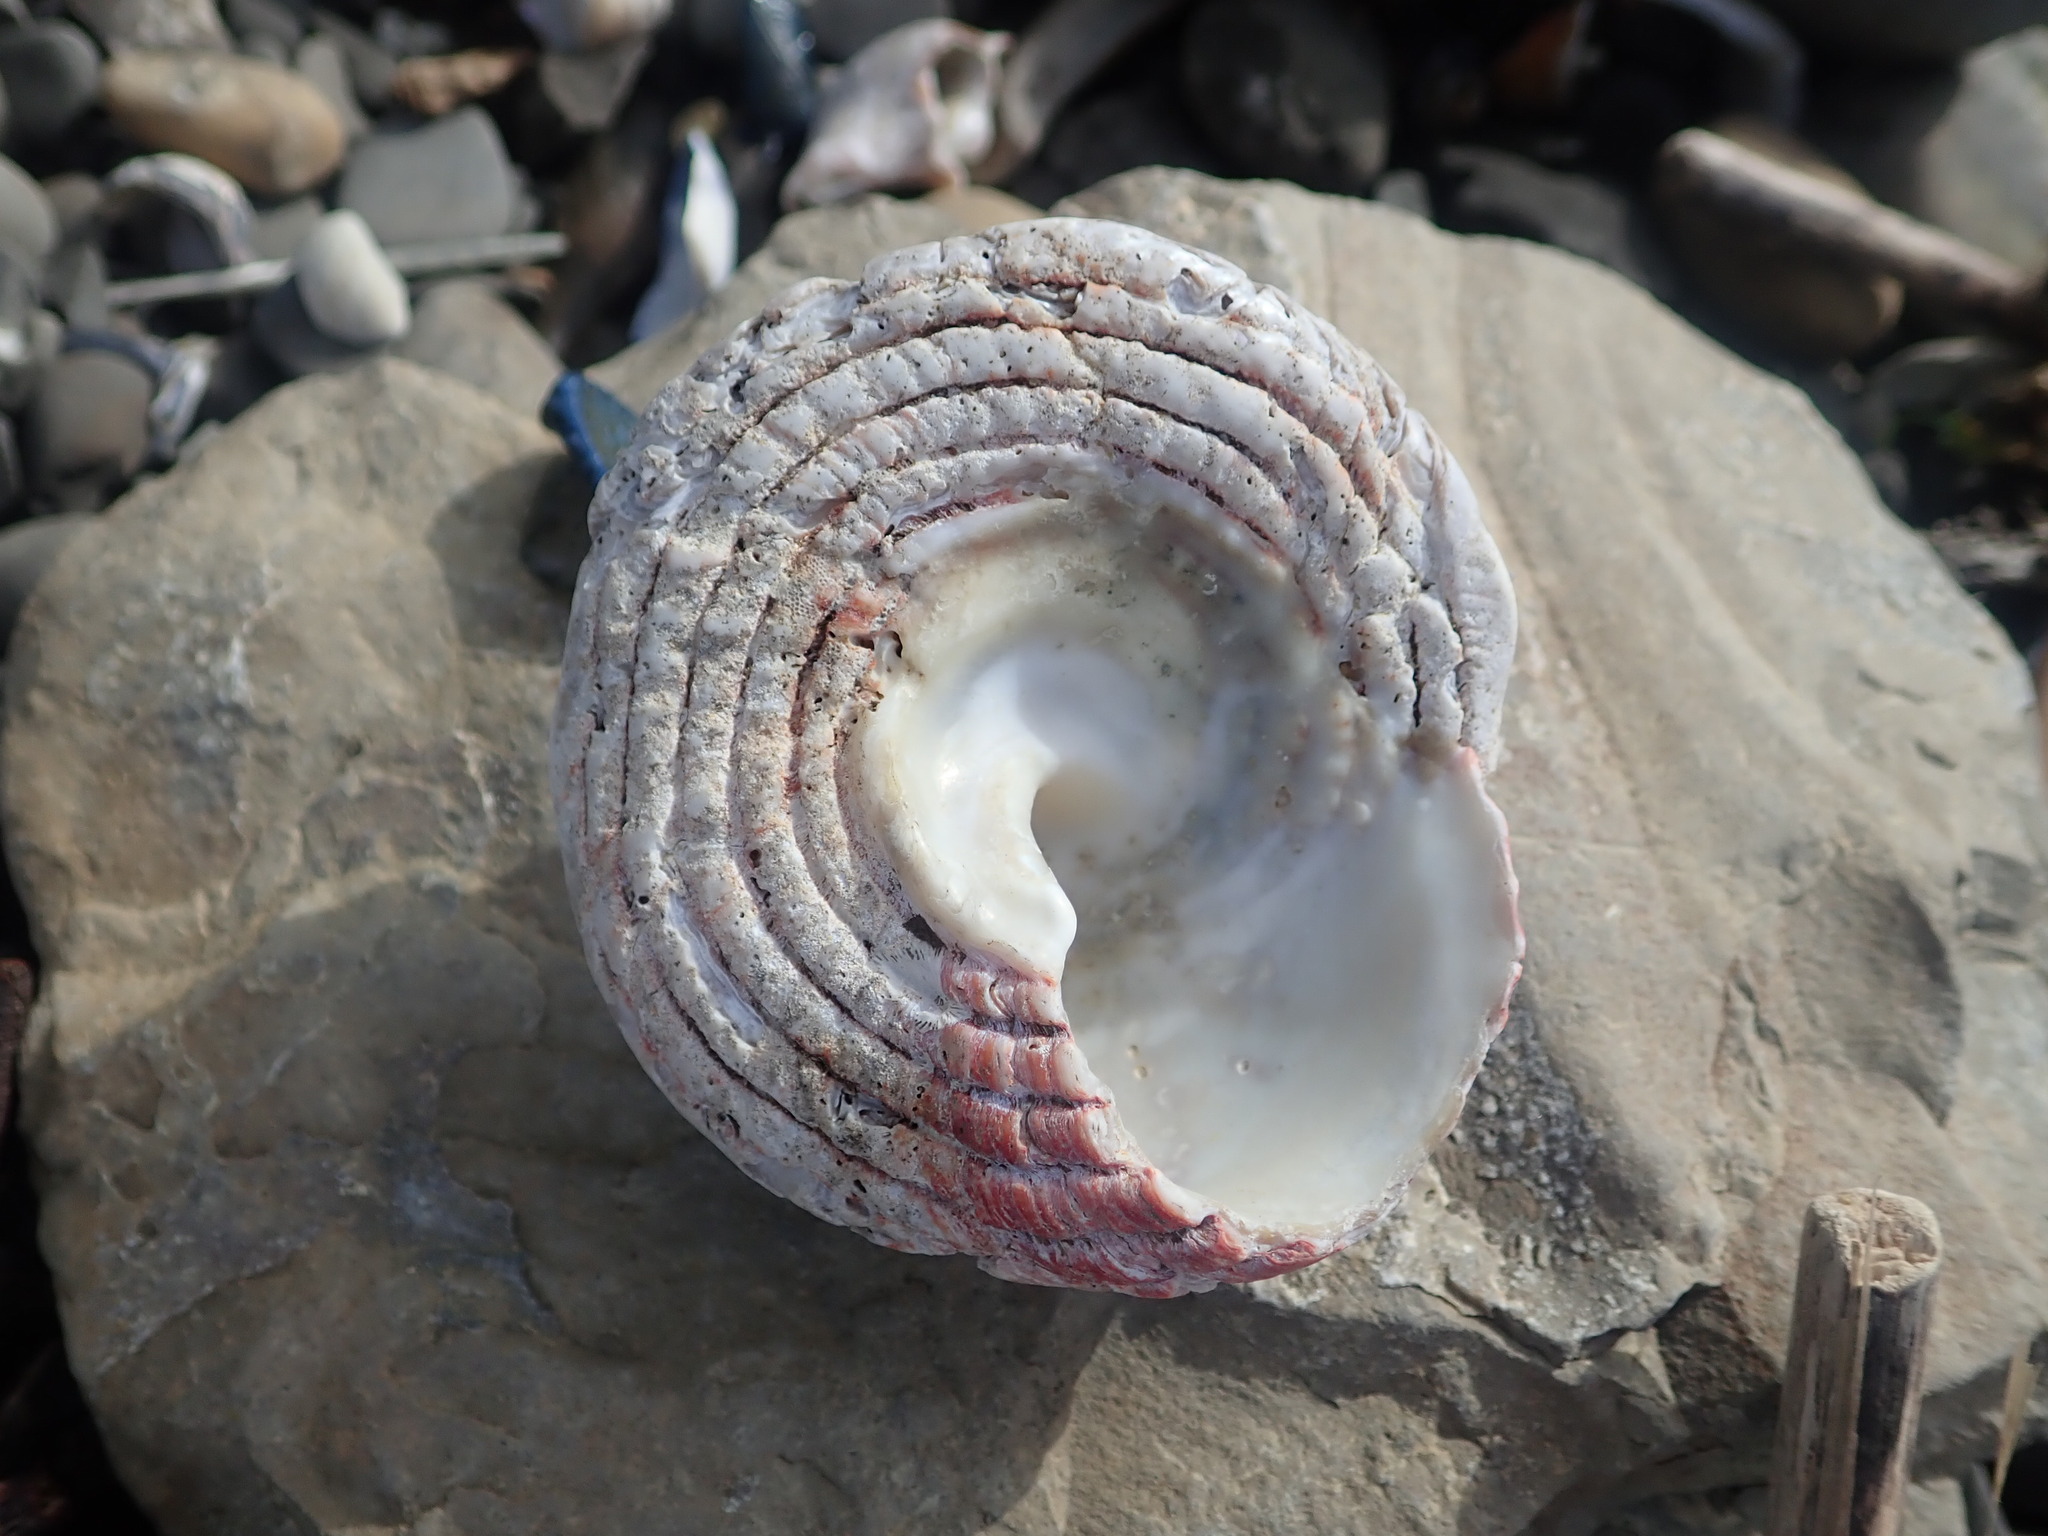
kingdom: Animalia
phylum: Mollusca
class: Gastropoda
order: Trochida
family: Turbinidae
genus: Pomaulax
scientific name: Pomaulax gibberosus
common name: Red turban
